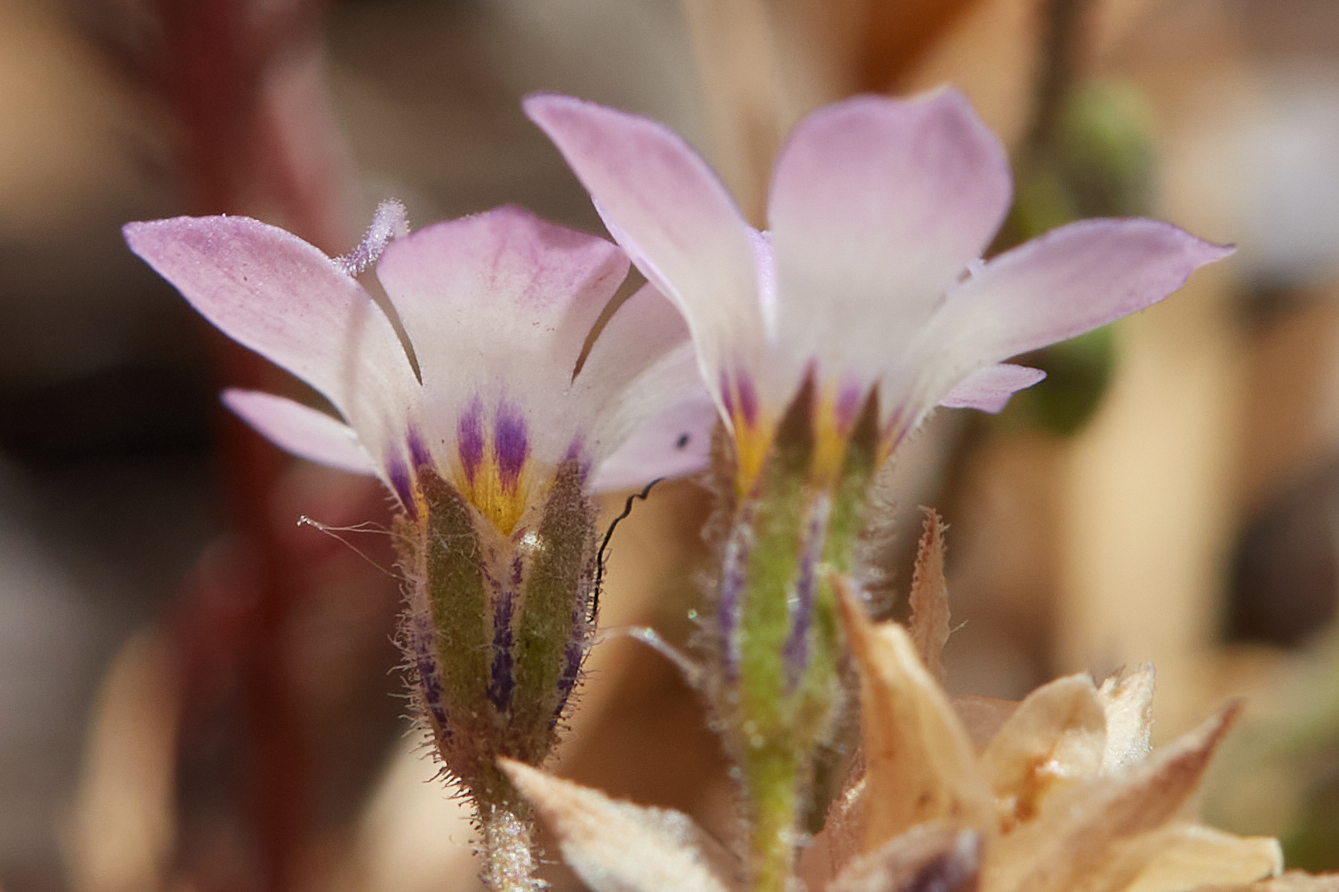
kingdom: Plantae
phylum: Tracheophyta
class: Magnoliopsida
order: Ericales
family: Polemoniaceae
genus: Gilia
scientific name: Gilia tricolor
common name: Bird's-eyes
